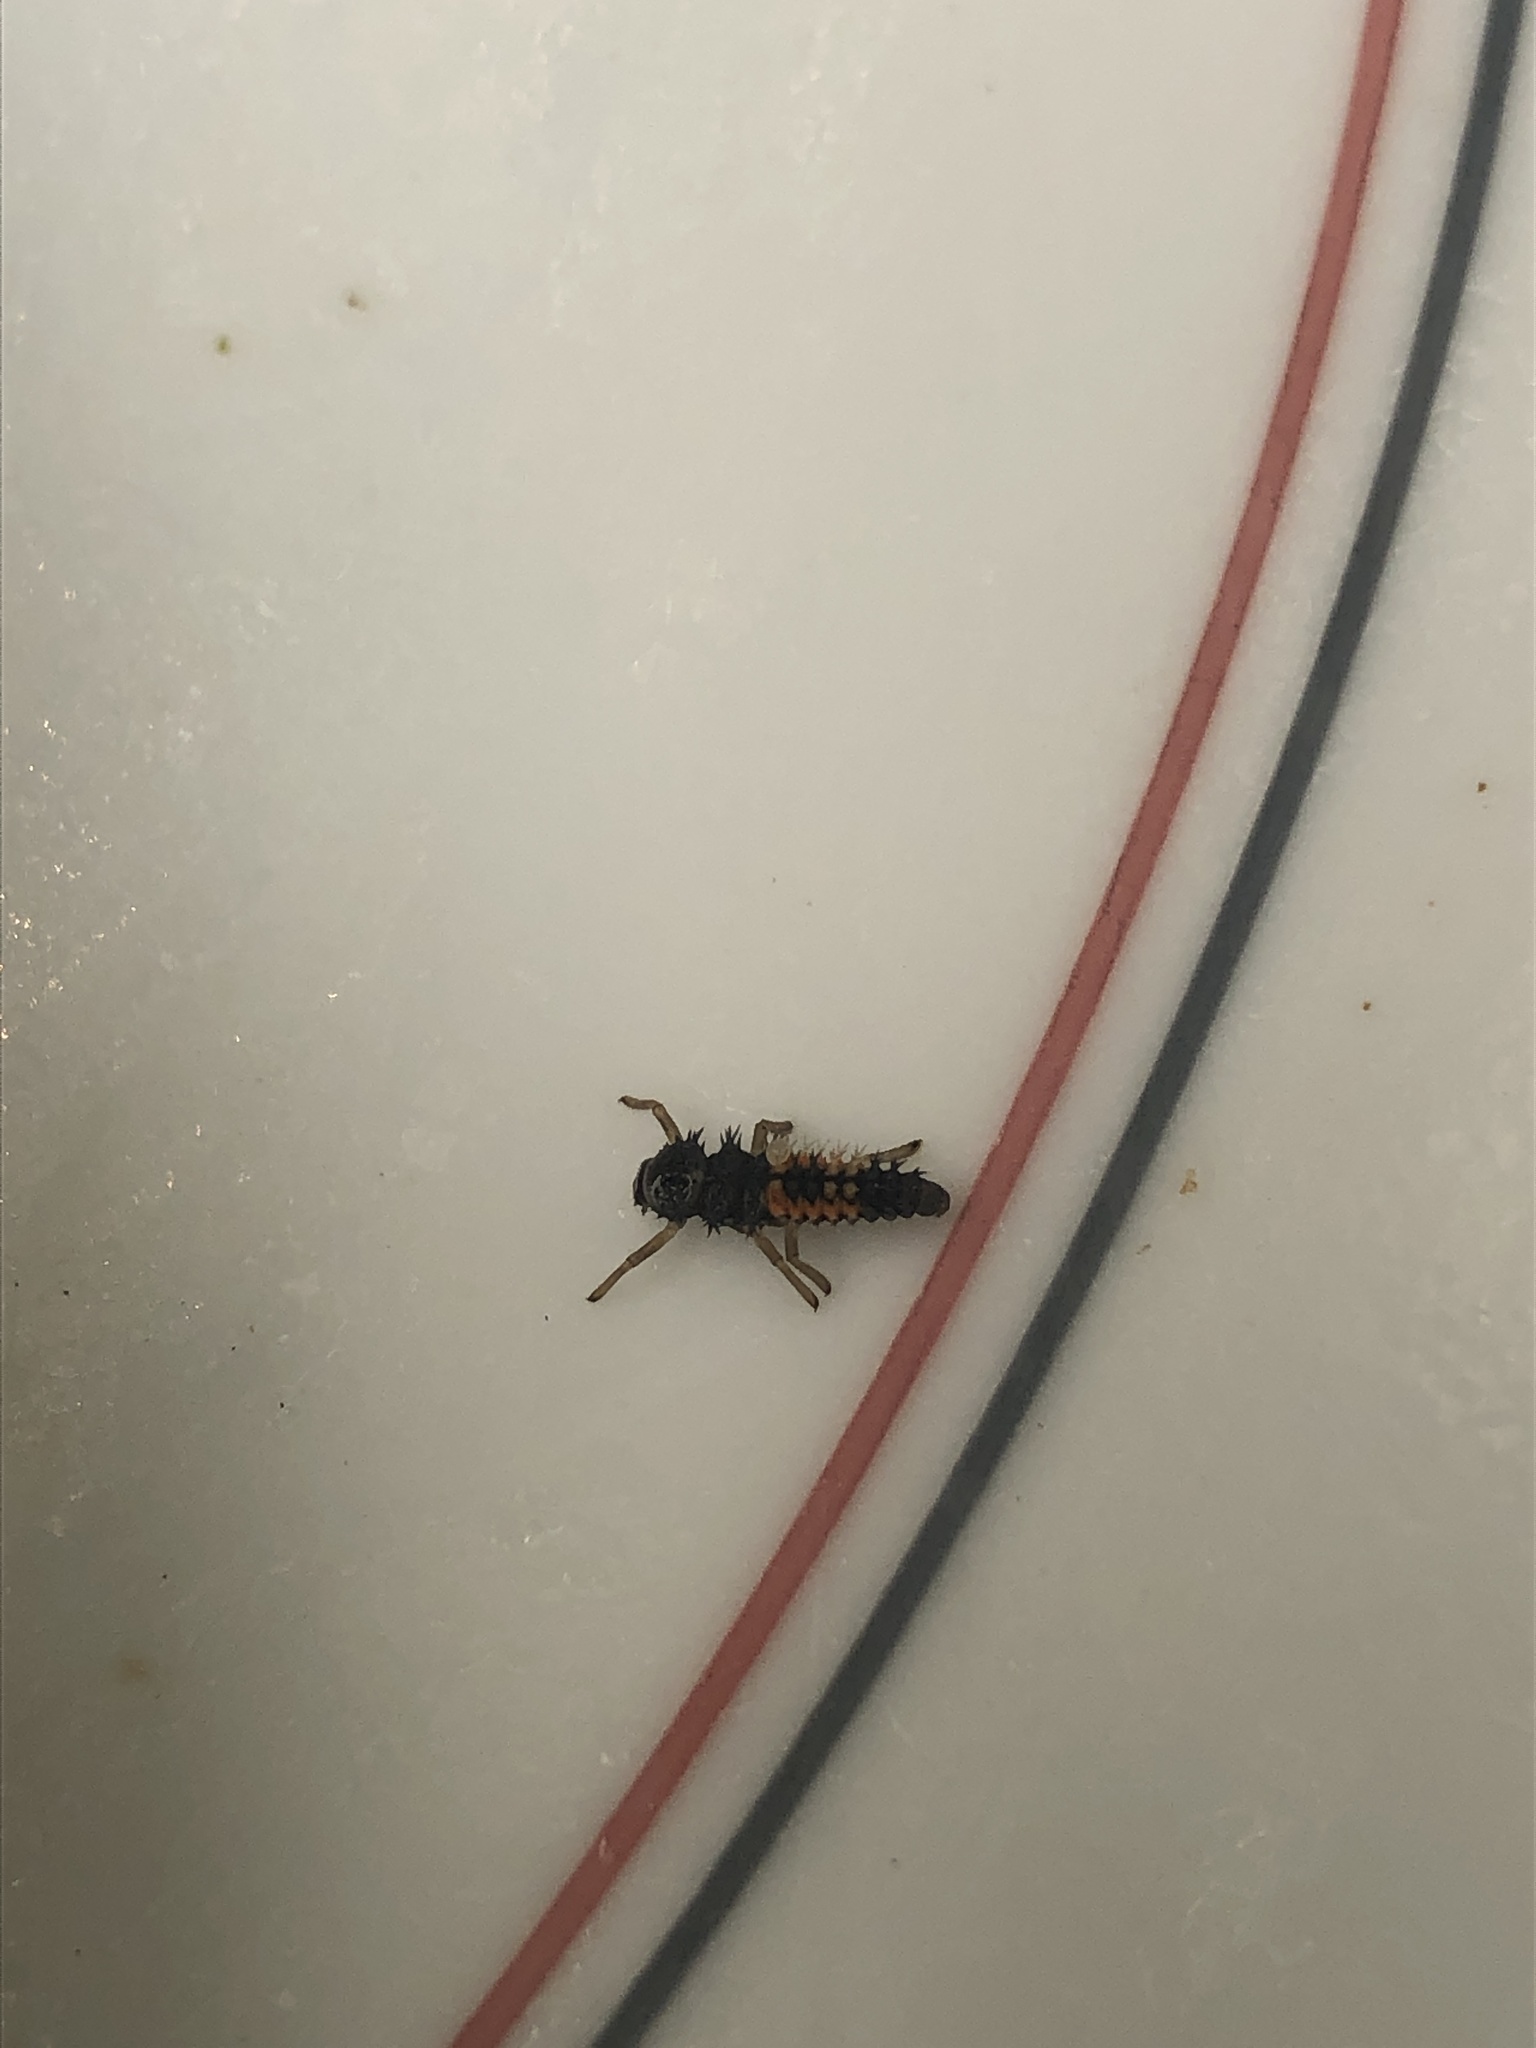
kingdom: Animalia
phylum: Arthropoda
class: Insecta
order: Coleoptera
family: Coccinellidae
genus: Harmonia
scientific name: Harmonia axyridis
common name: Harlequin ladybird
